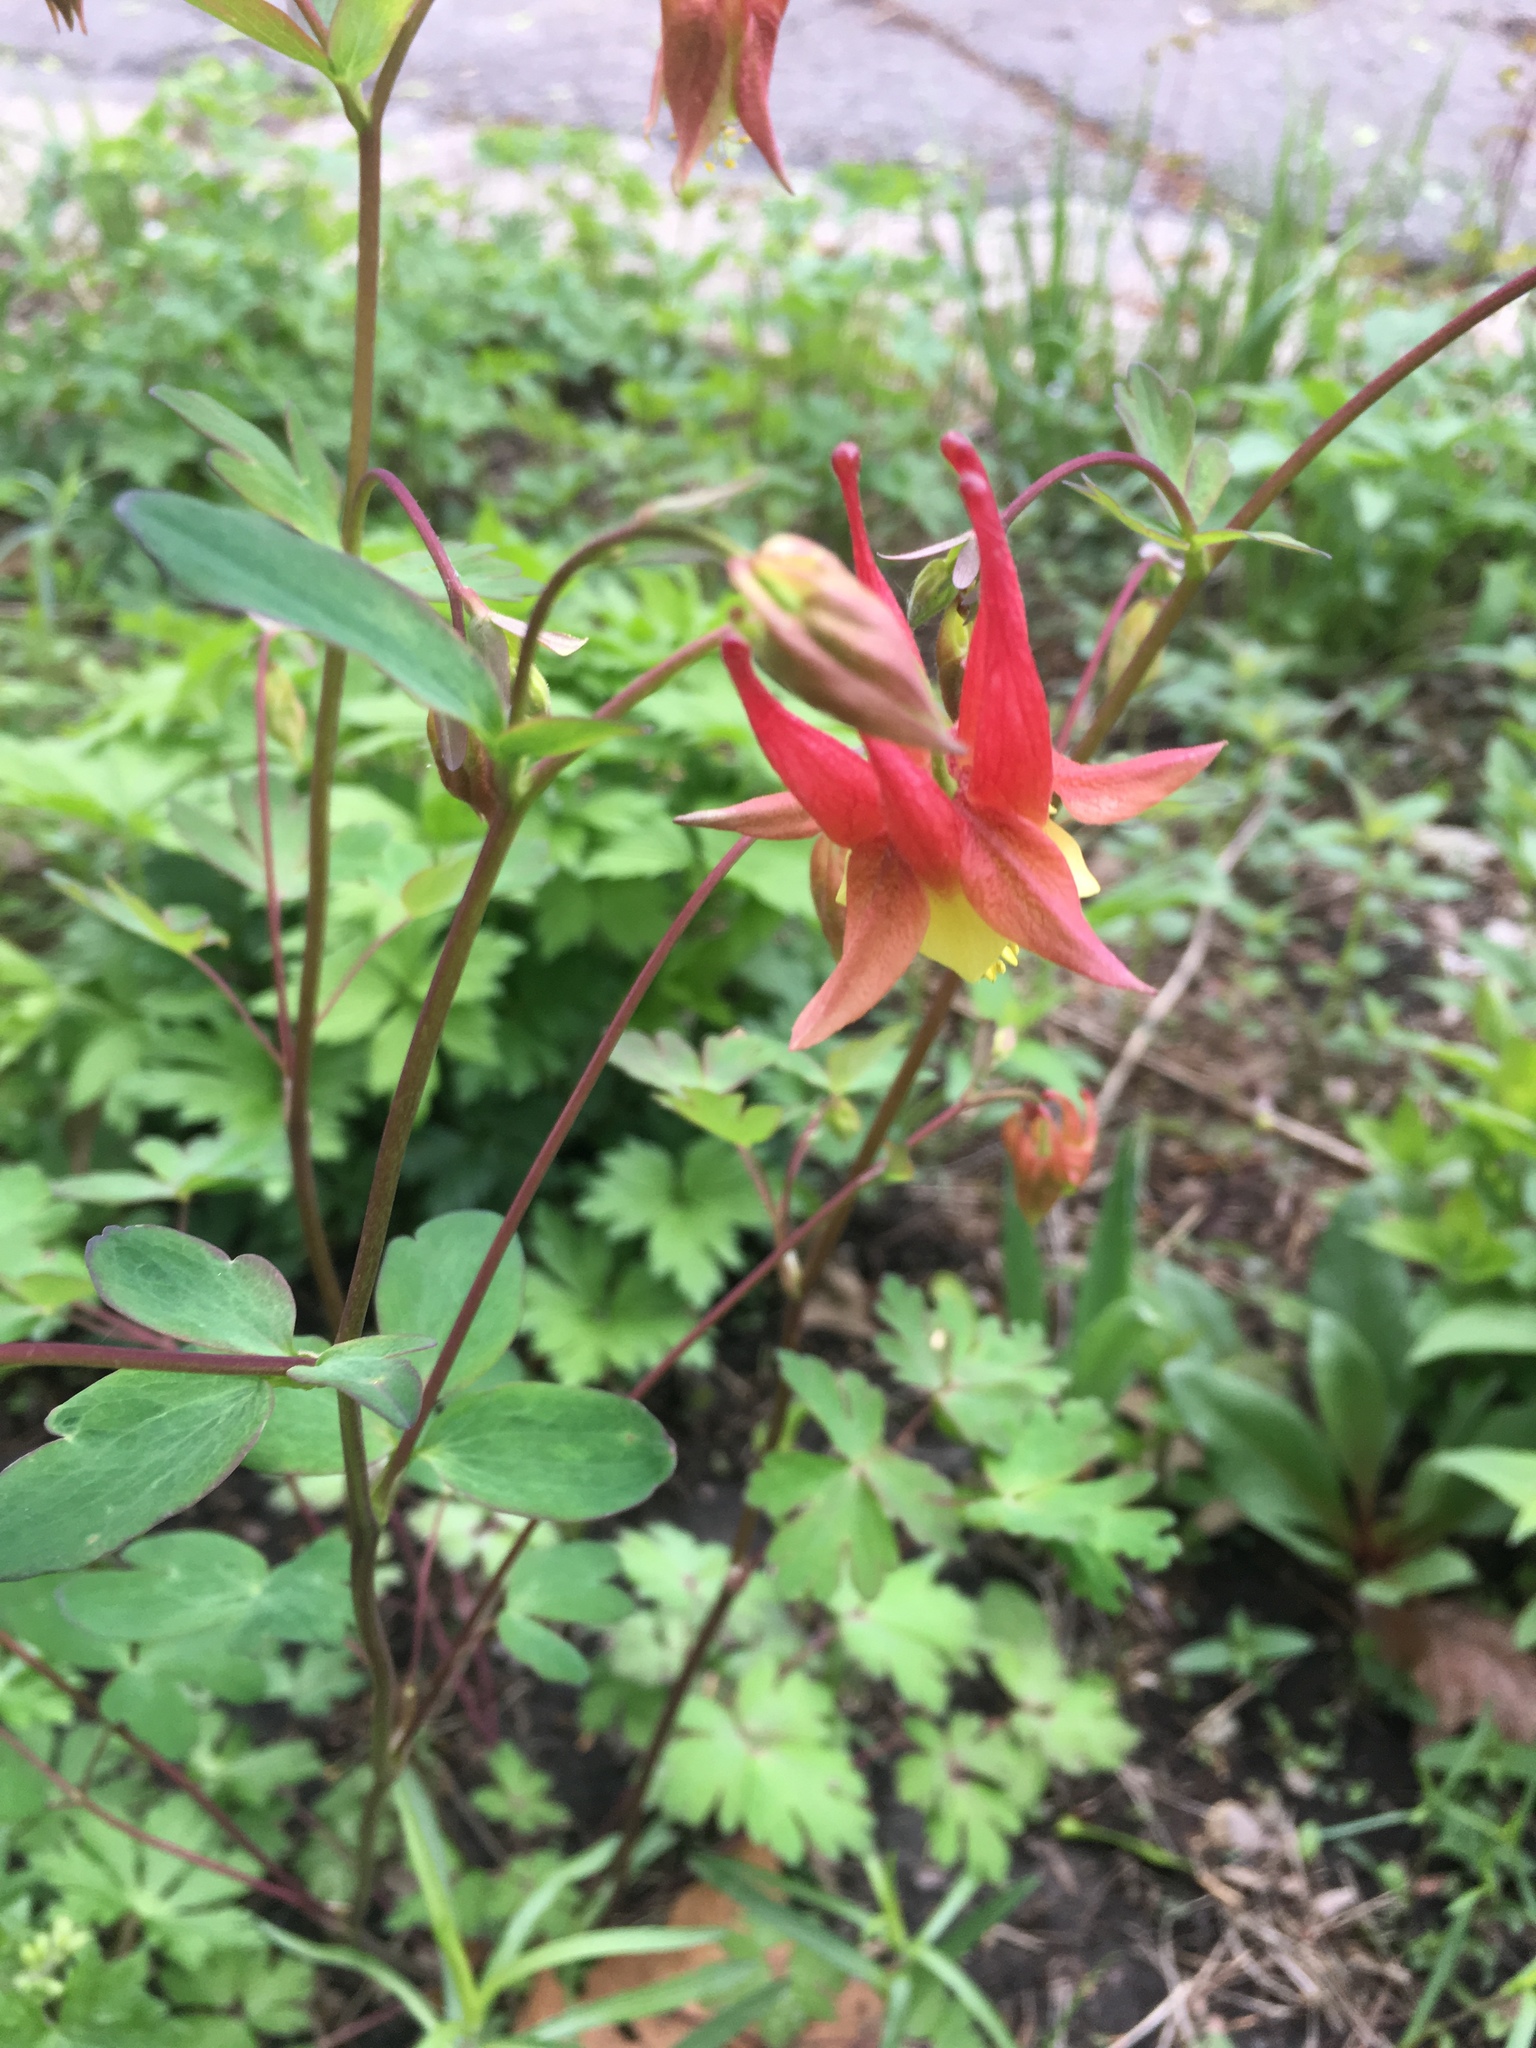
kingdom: Plantae
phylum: Tracheophyta
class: Magnoliopsida
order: Ranunculales
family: Ranunculaceae
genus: Aquilegia
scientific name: Aquilegia canadensis
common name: American columbine
